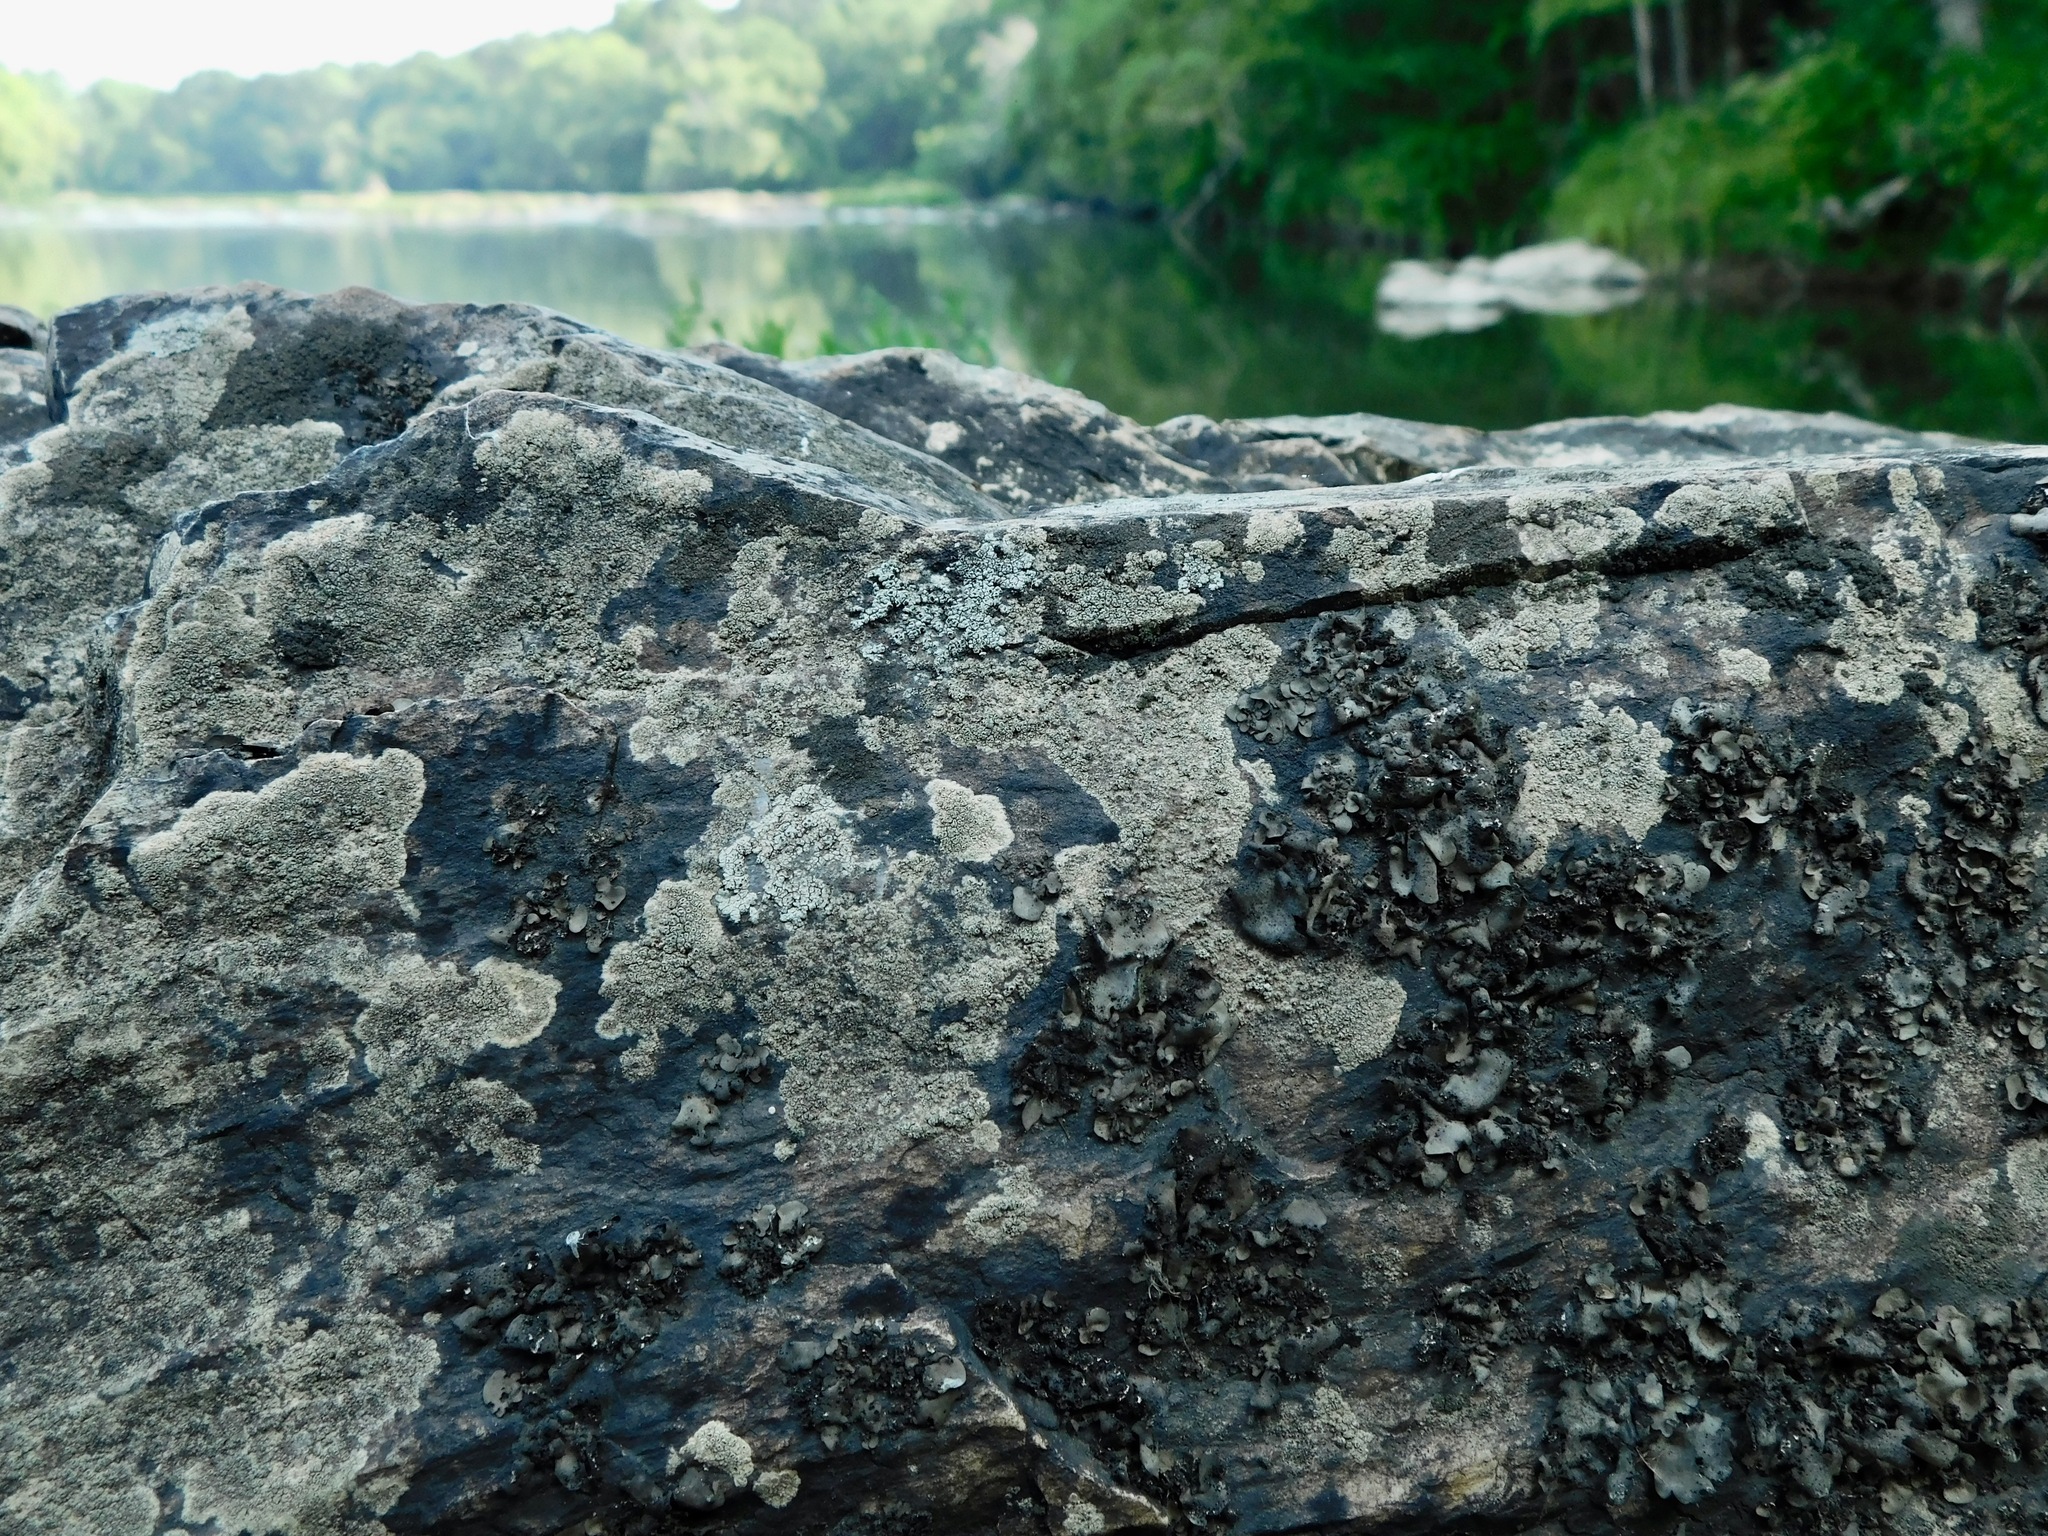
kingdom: Fungi
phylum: Ascomycota
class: Eurotiomycetes
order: Verrucariales
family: Verrucariaceae
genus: Dermatocarpon
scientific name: Dermatocarpon arenosaxi
